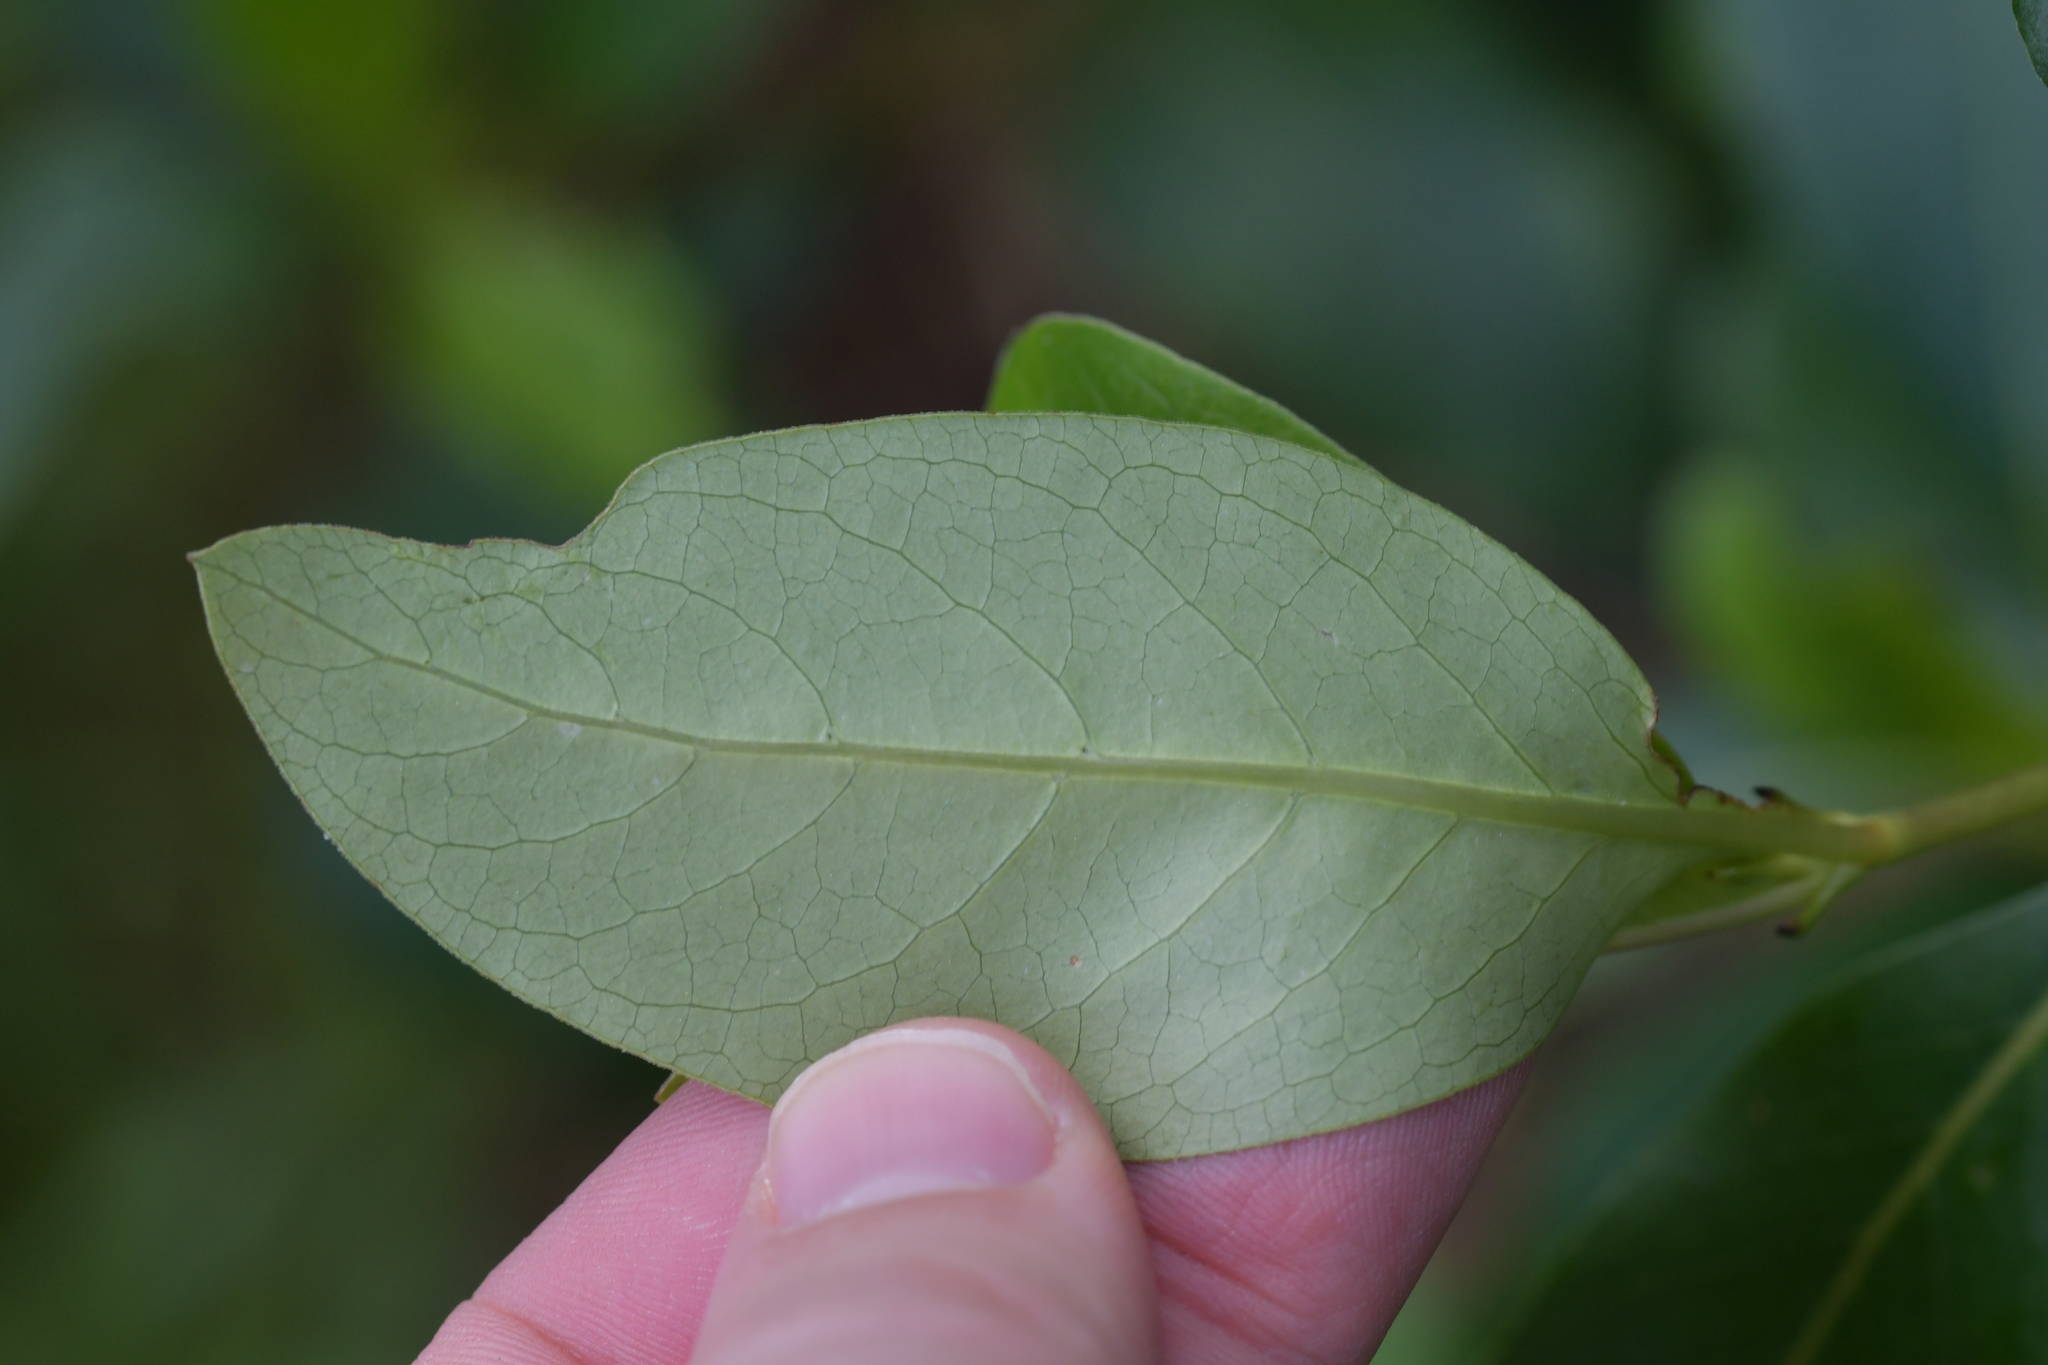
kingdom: Plantae
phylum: Tracheophyta
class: Magnoliopsida
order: Gentianales
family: Rubiaceae
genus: Coprosma
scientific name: Coprosma robusta
